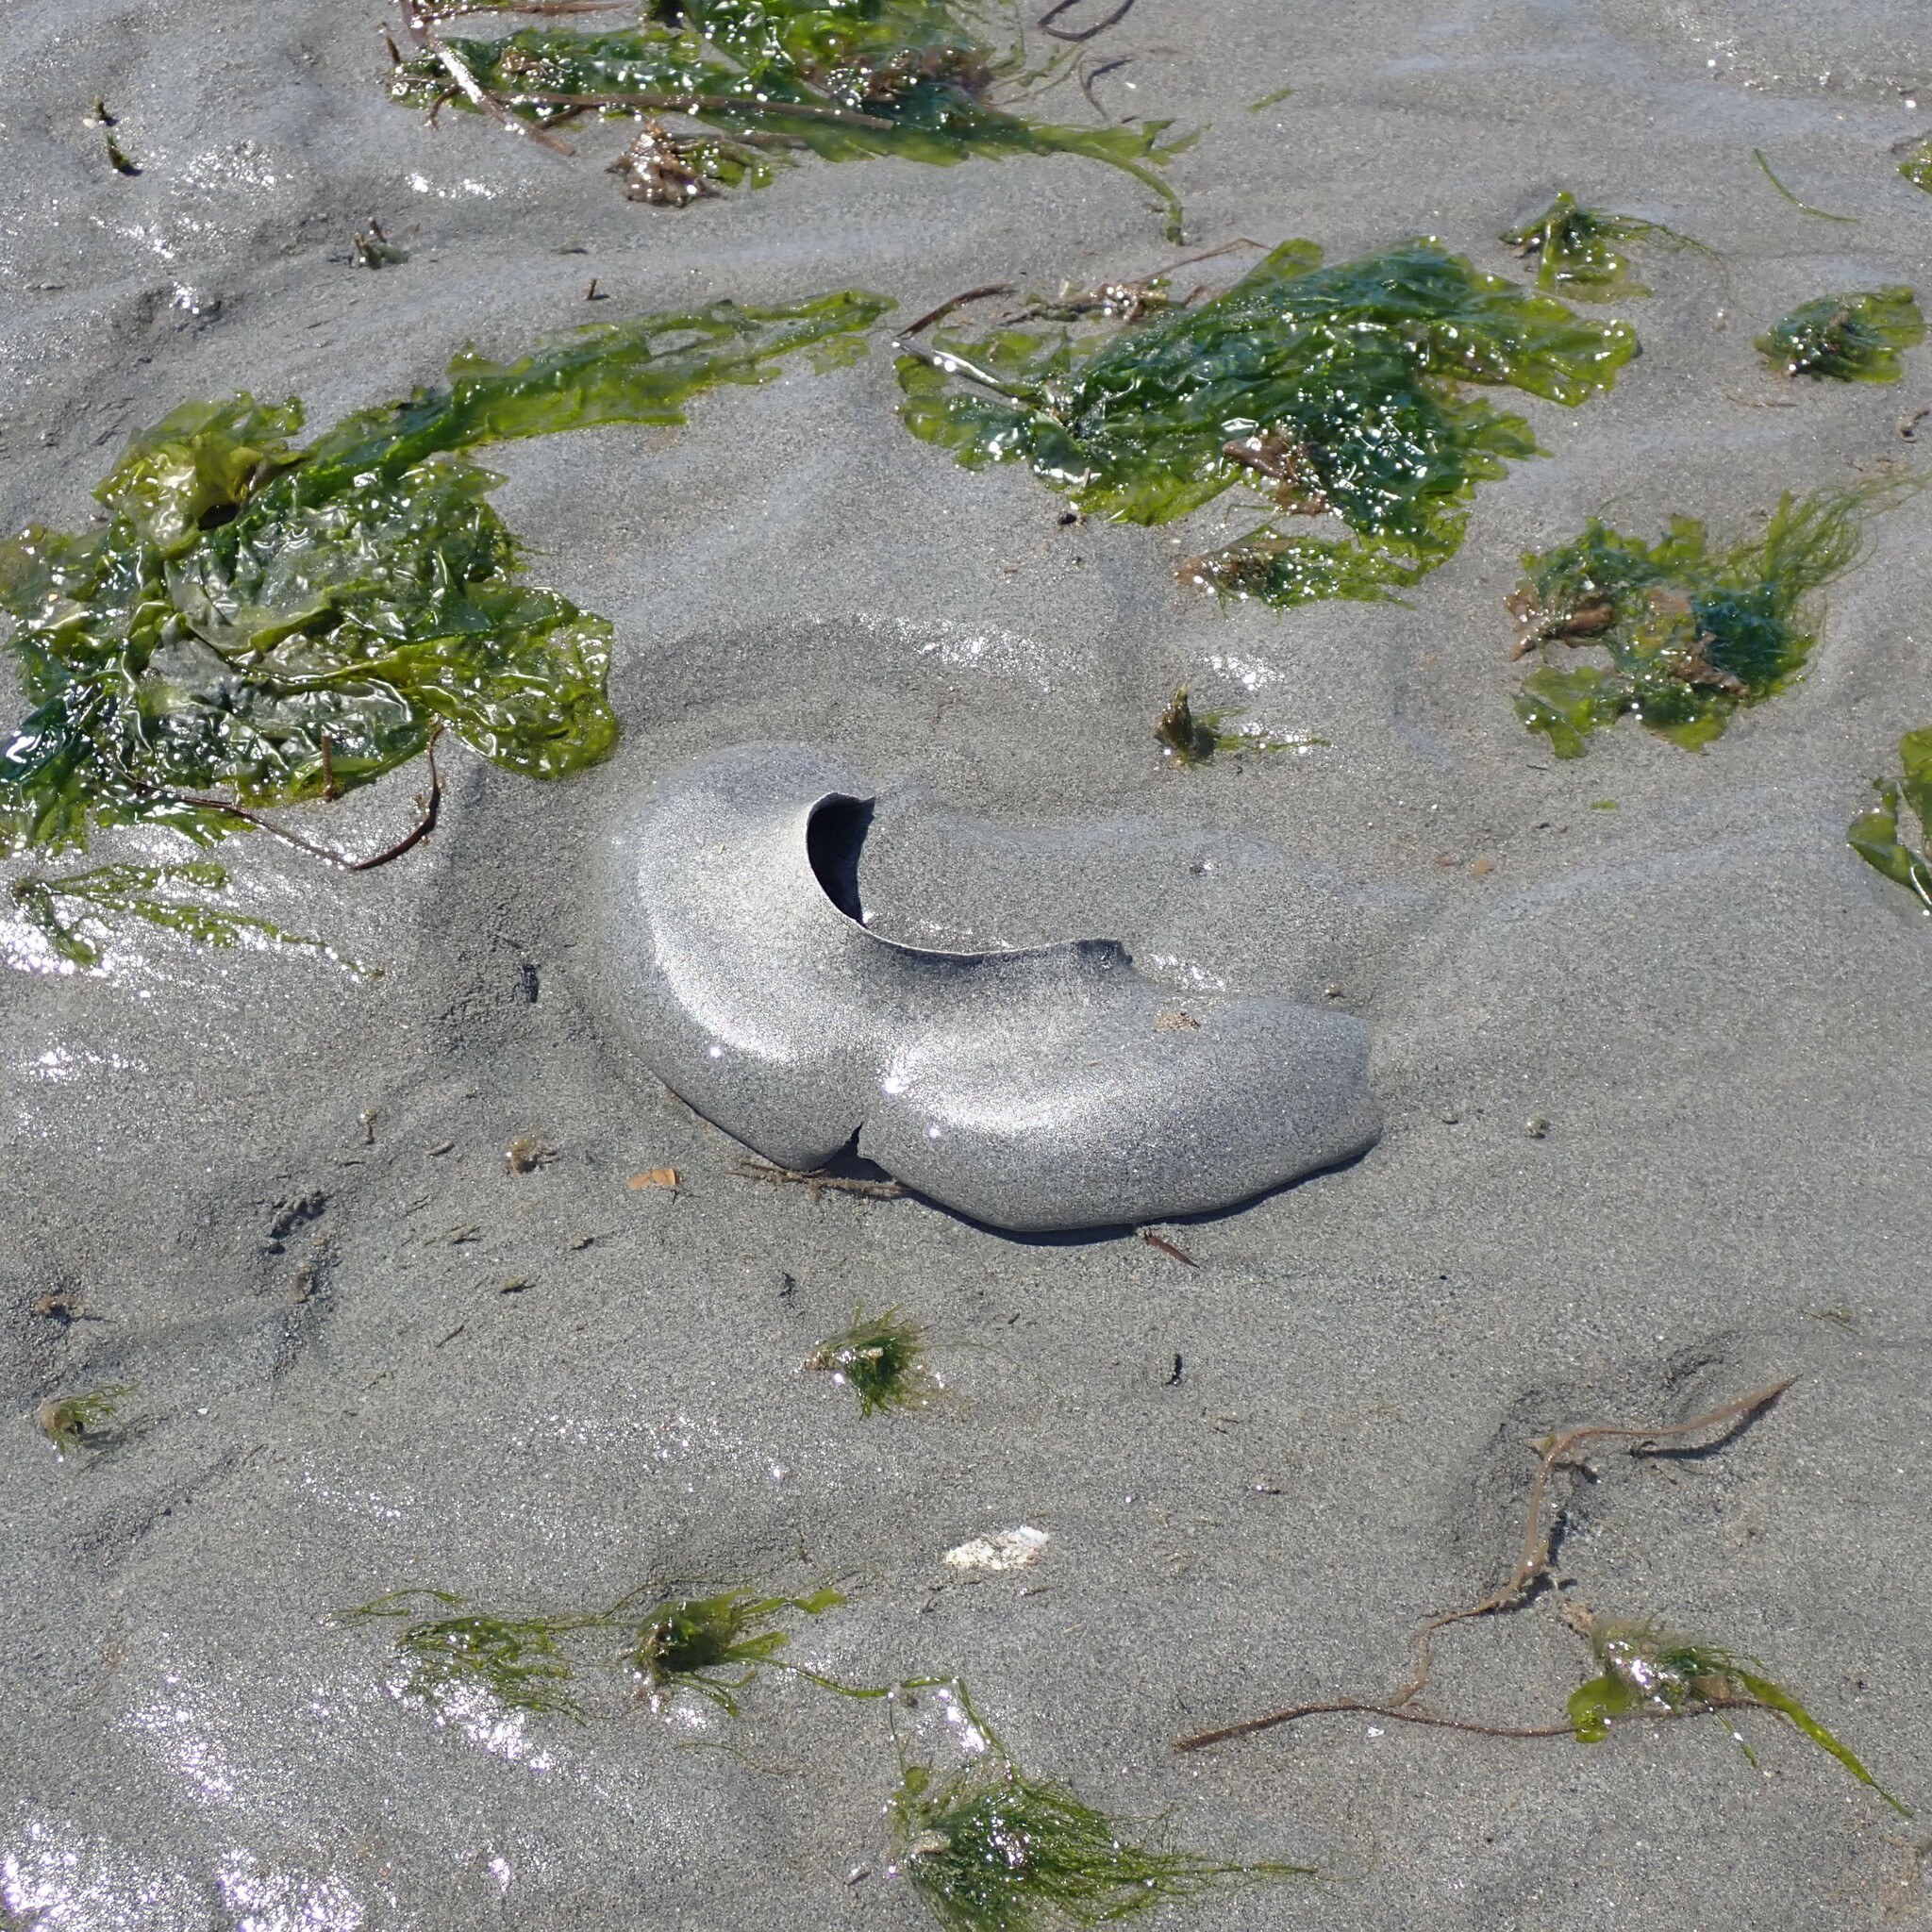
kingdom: Animalia
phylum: Mollusca
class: Gastropoda
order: Littorinimorpha
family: Naticidae
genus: Neverita
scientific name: Neverita lewisii
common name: Lewis' moonsnail
